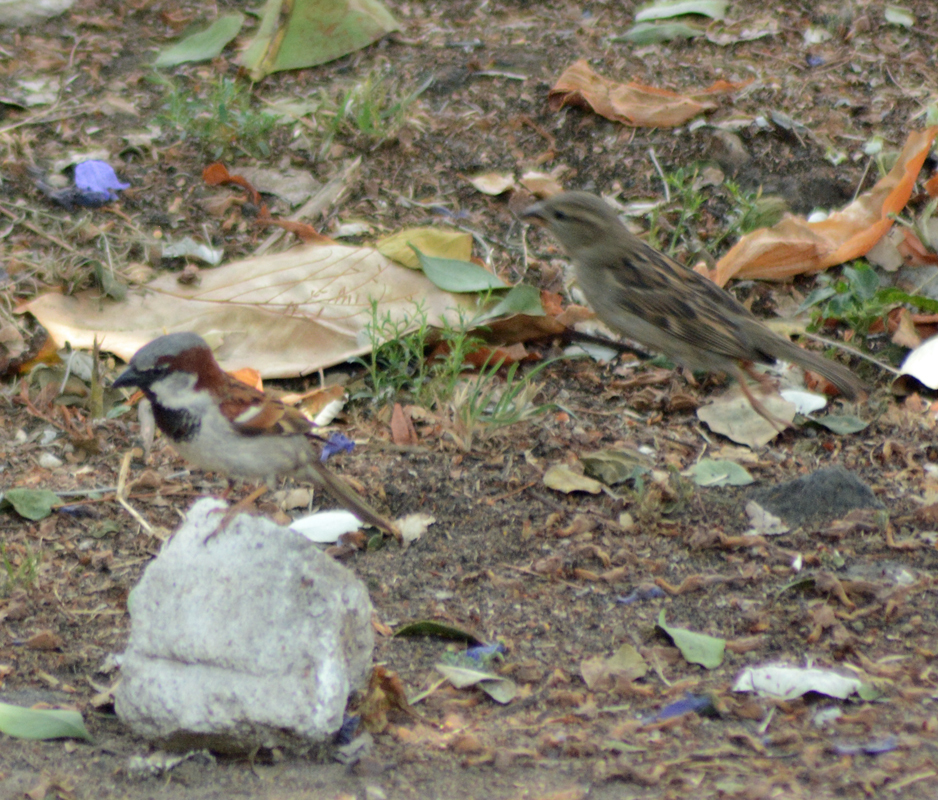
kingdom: Animalia
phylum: Chordata
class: Aves
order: Passeriformes
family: Passeridae
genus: Passer
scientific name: Passer domesticus
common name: House sparrow
